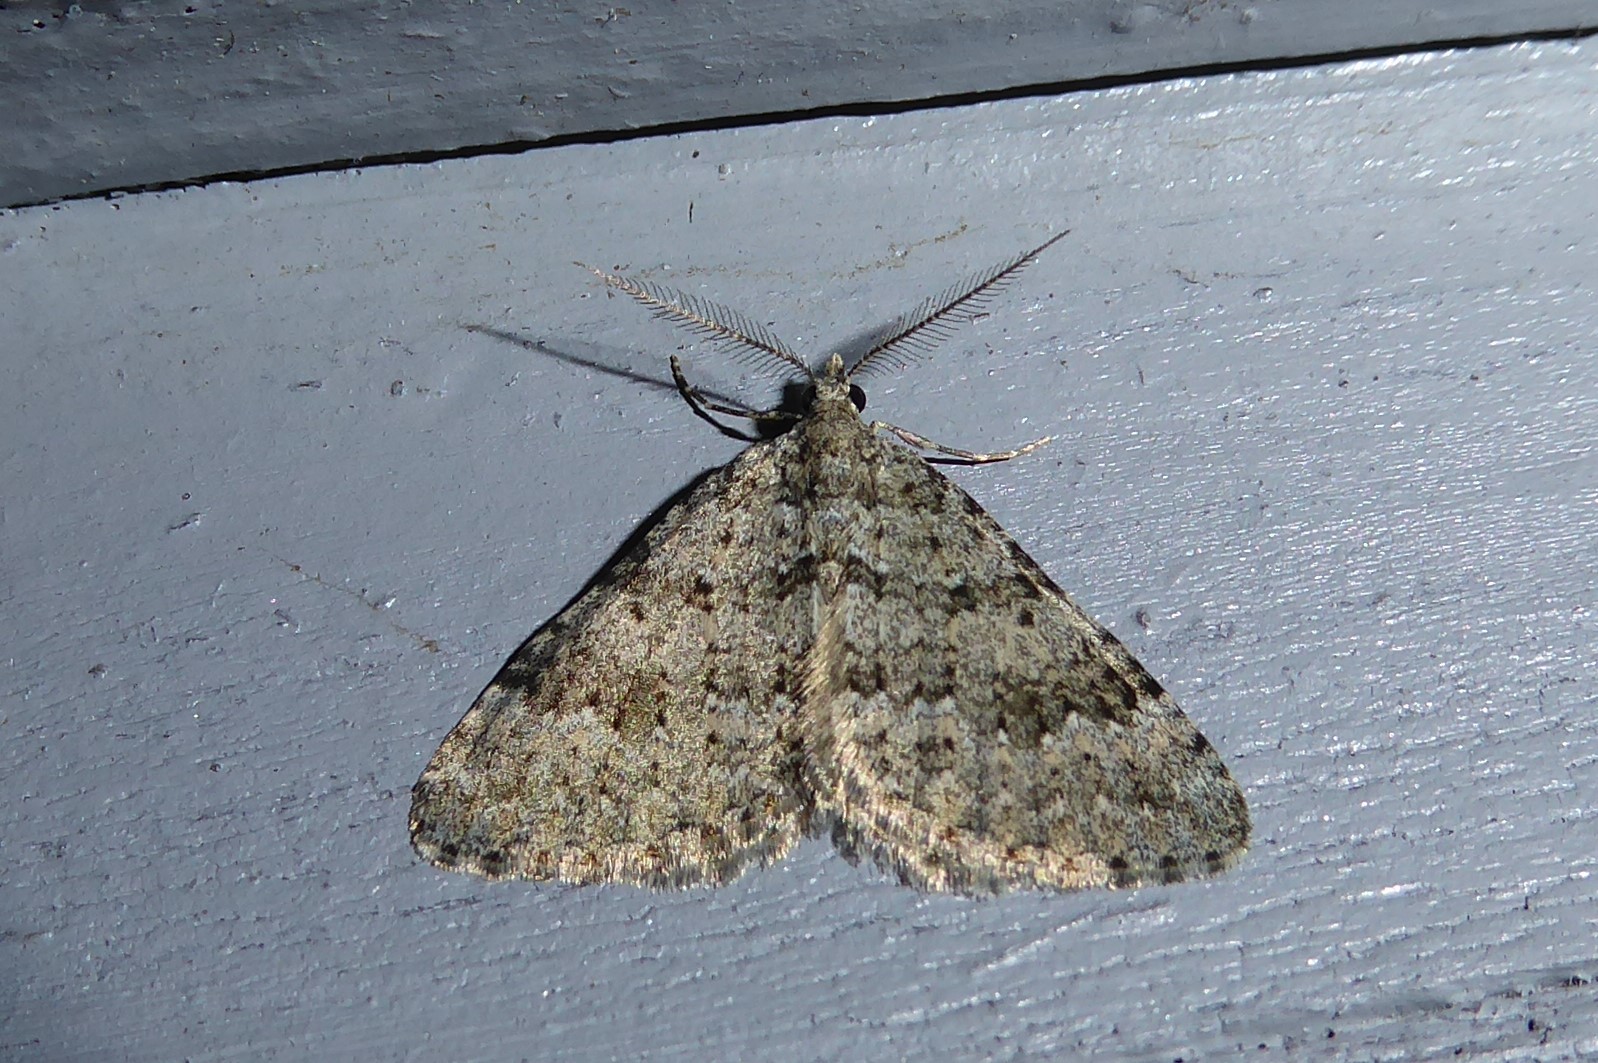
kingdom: Animalia
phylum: Arthropoda
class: Insecta
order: Lepidoptera
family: Geometridae
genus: Helastia
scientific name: Helastia corcularia
